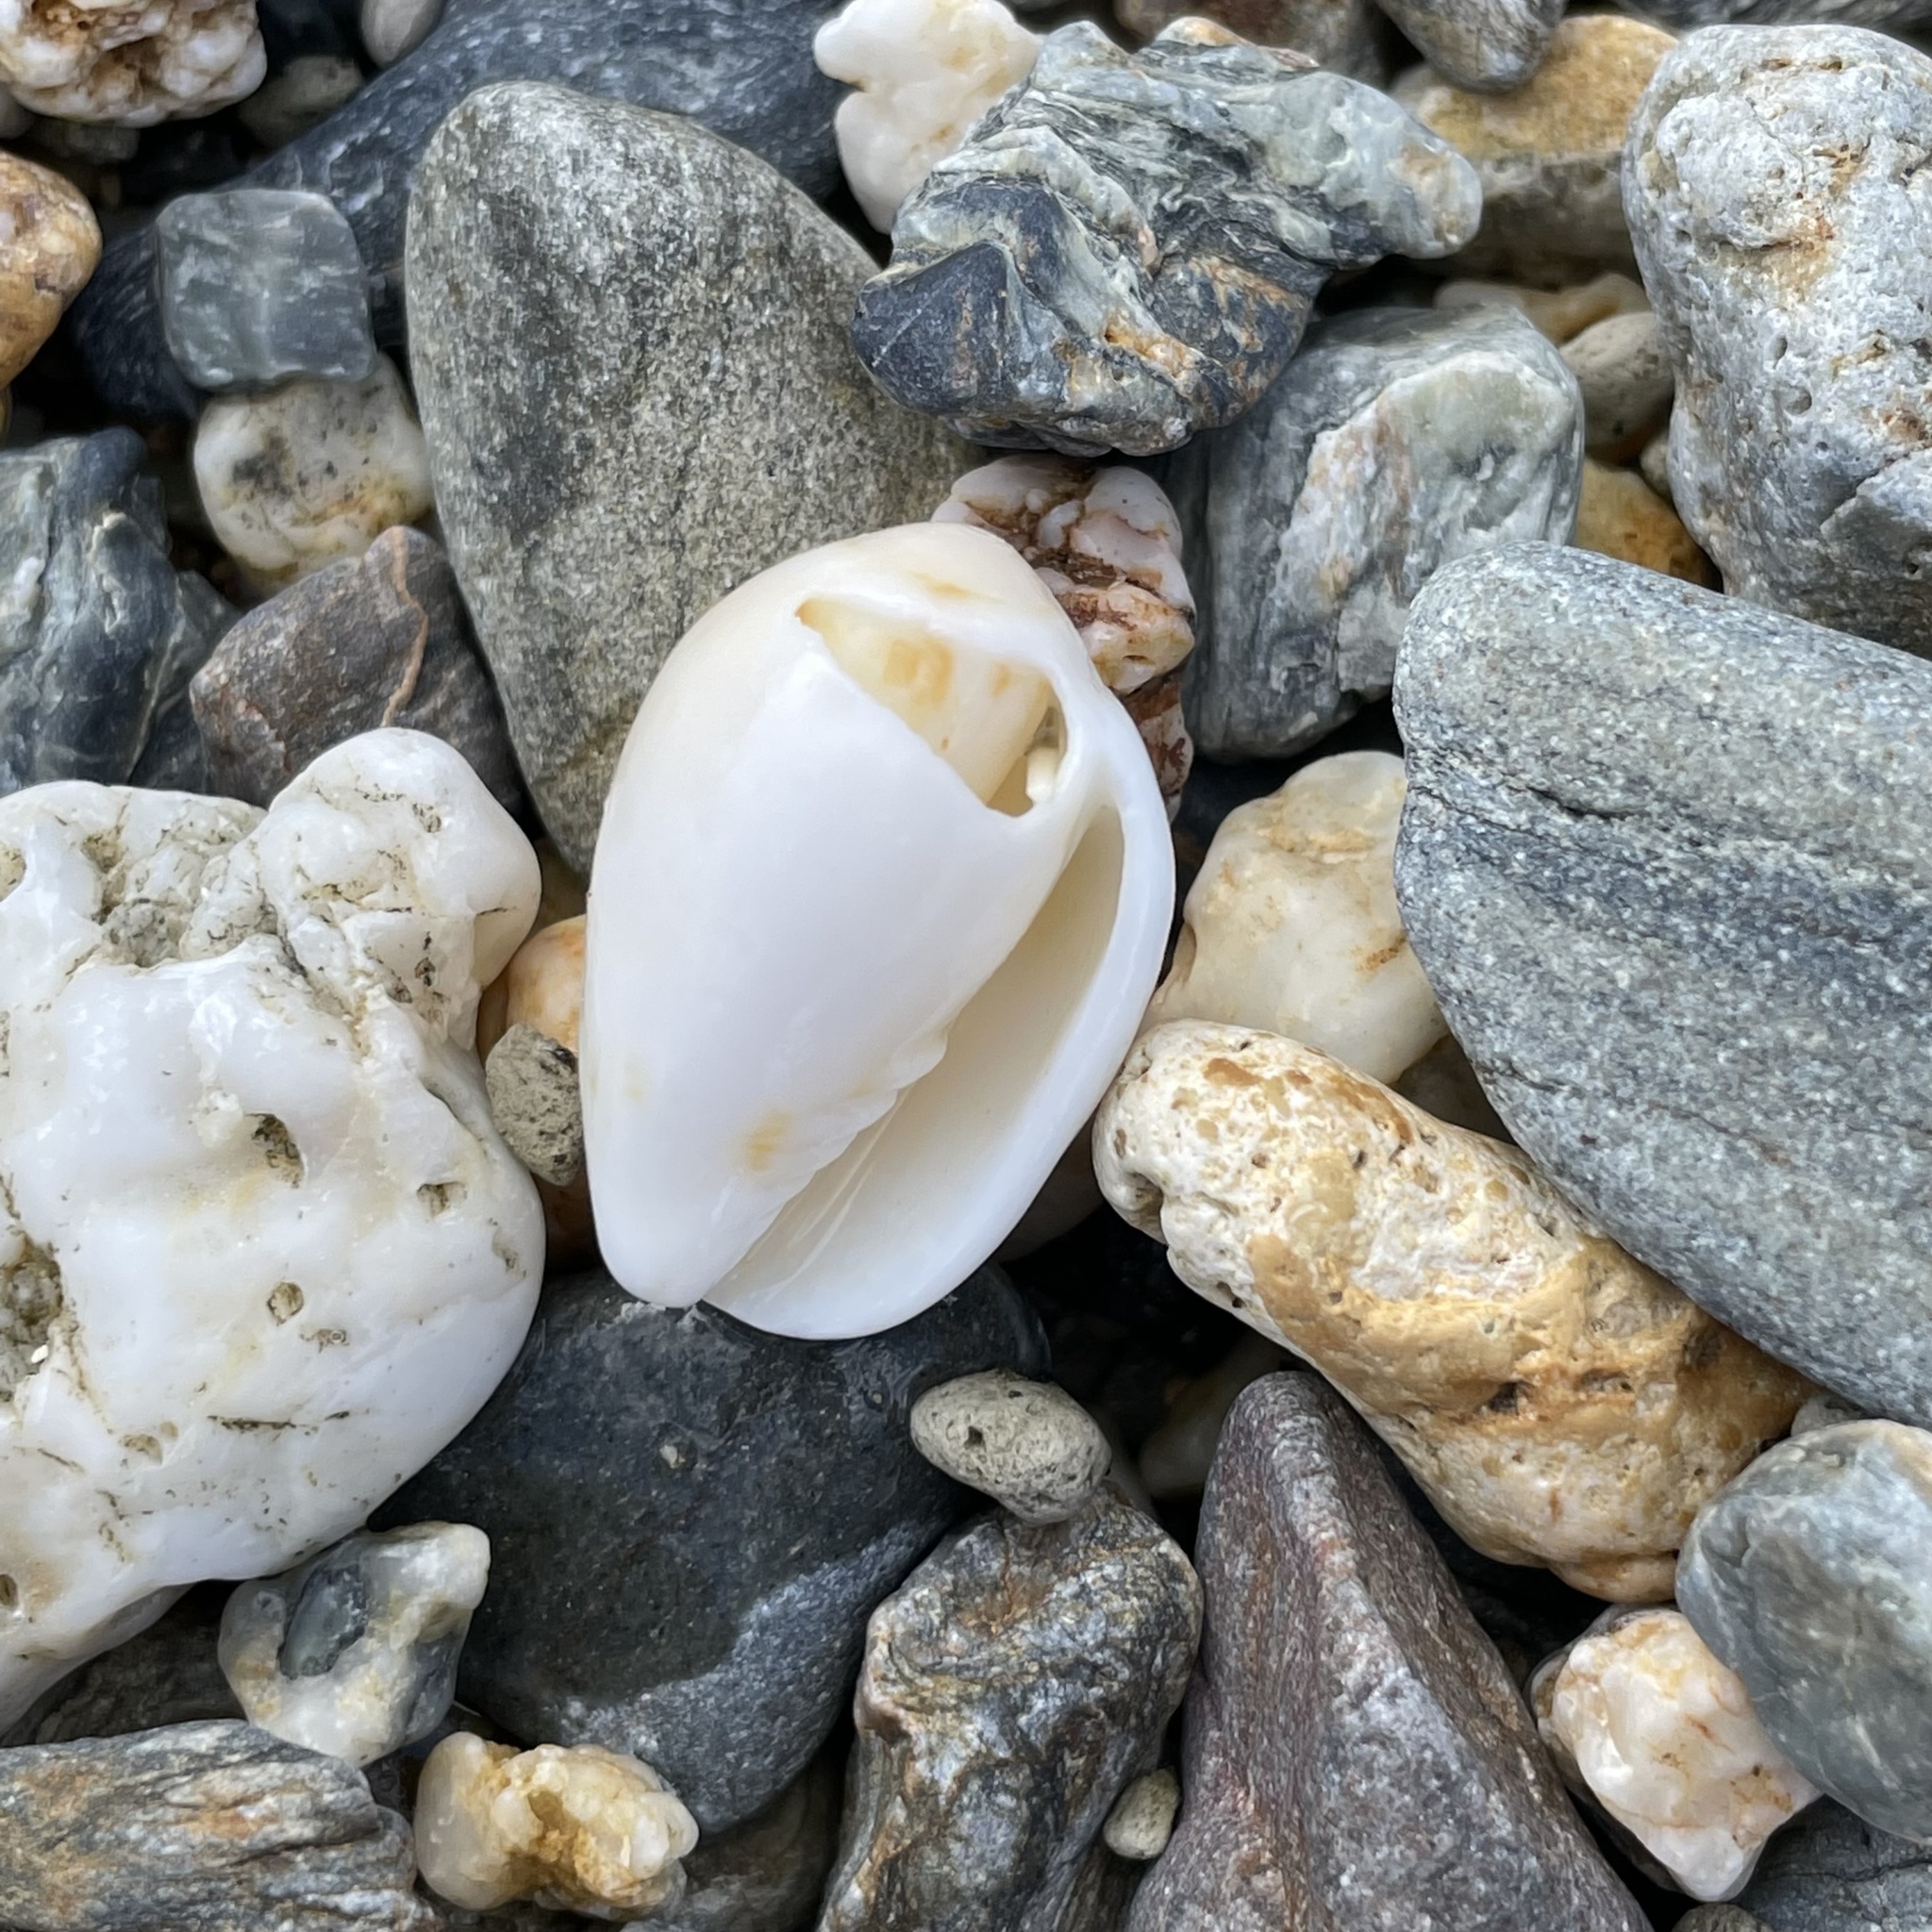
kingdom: Animalia
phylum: Mollusca
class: Gastropoda
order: Neogastropoda
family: Mitridae
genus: Pterygia
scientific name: Pterygia dactylus
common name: Finger miter
